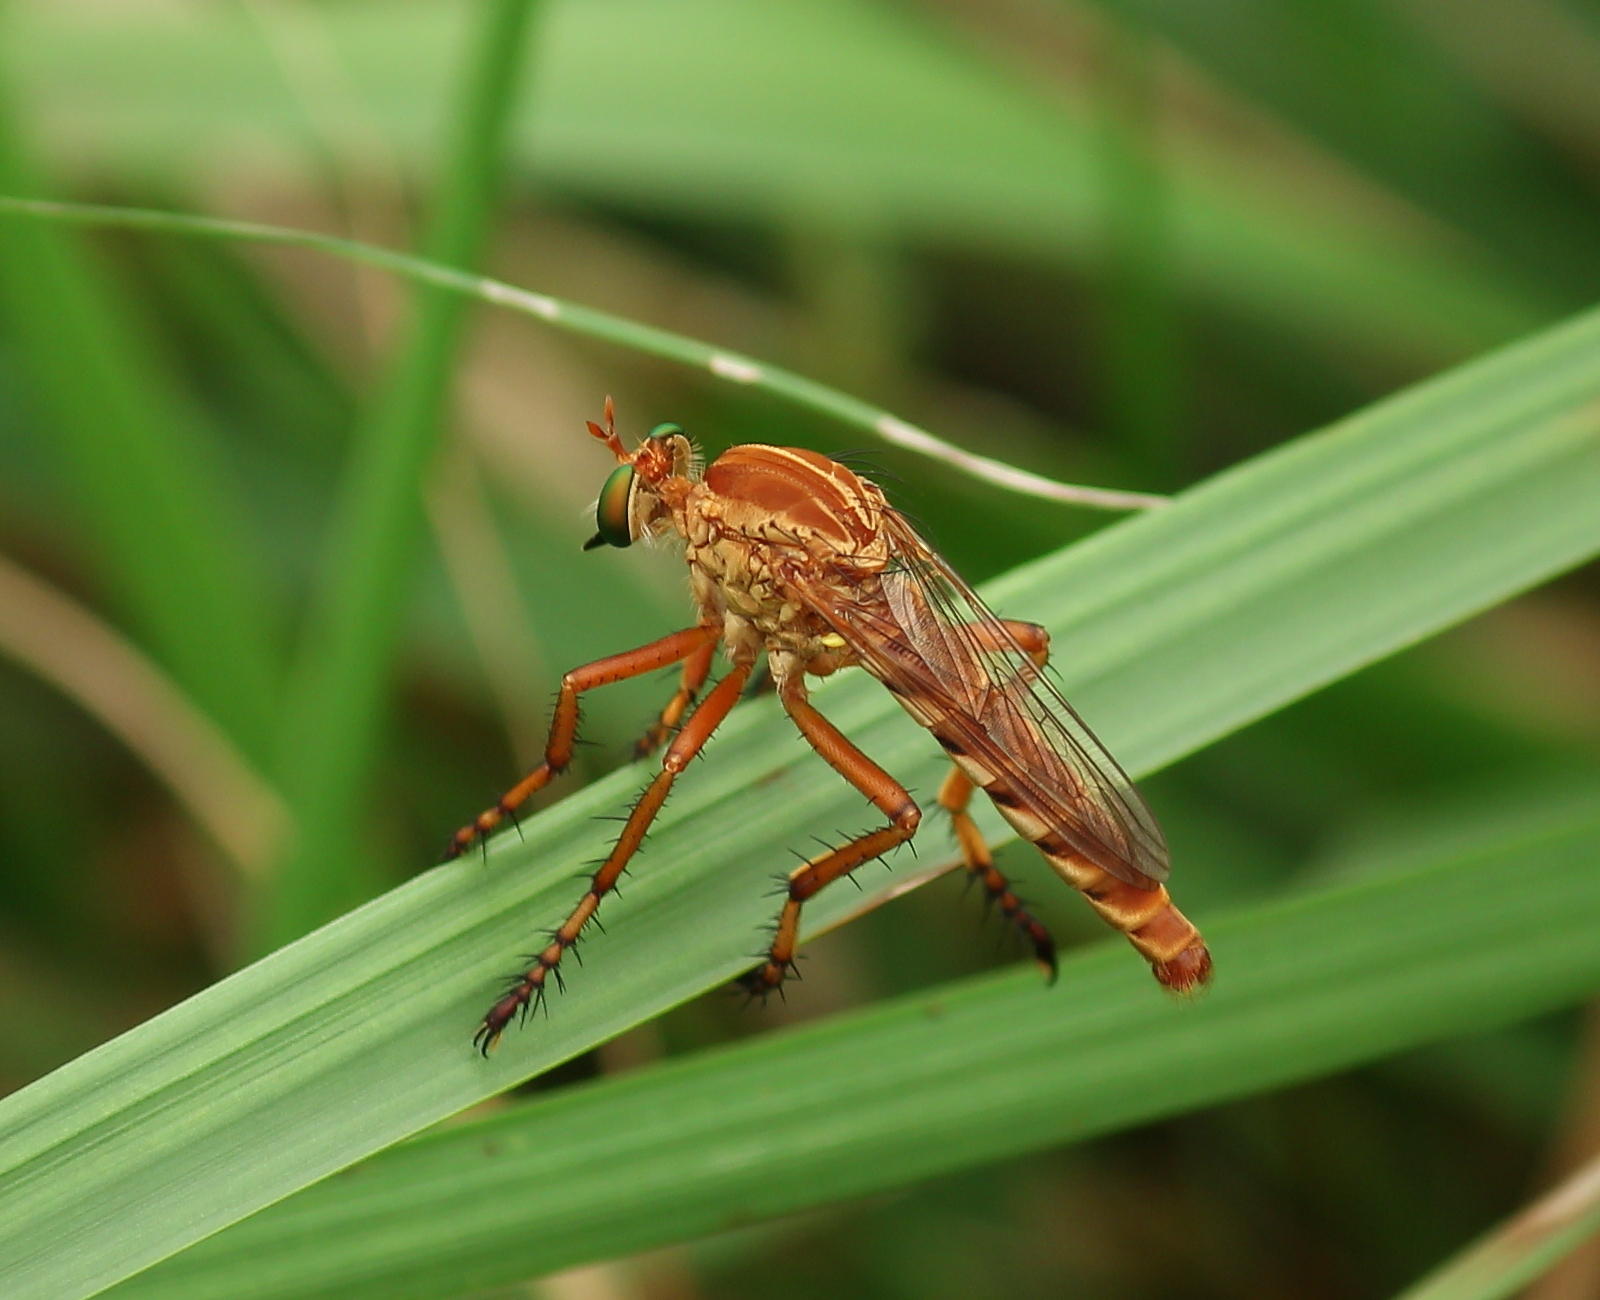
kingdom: Animalia
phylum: Arthropoda
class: Insecta
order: Diptera
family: Asilidae
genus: Diogmites
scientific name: Diogmites angustipennis
